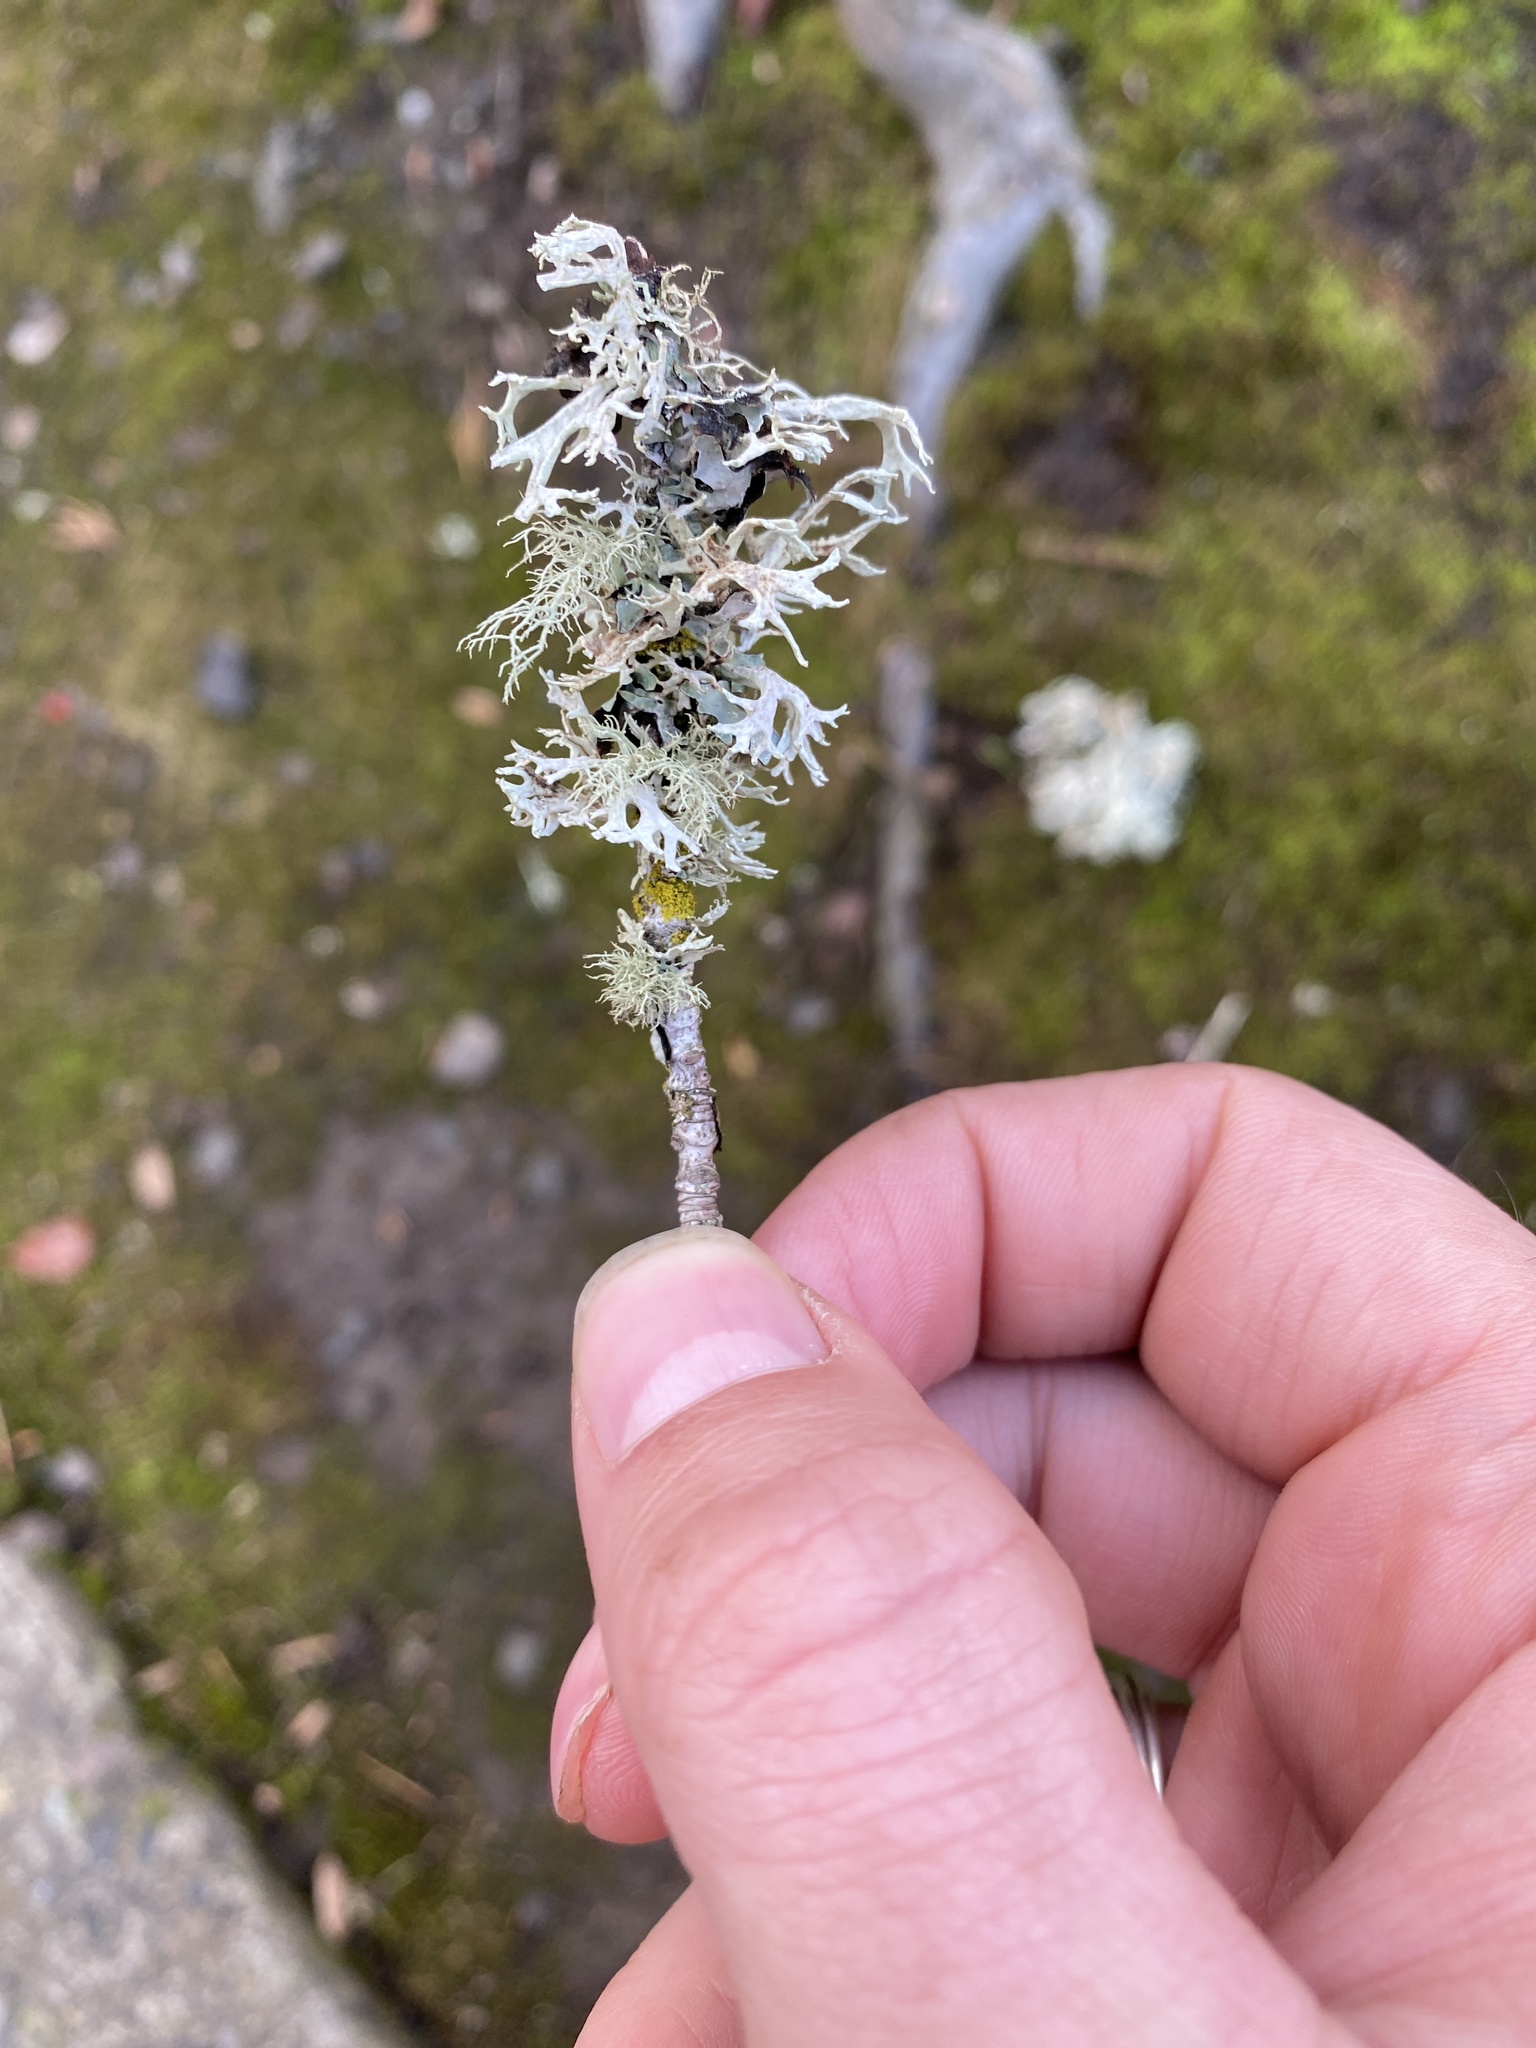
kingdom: Fungi
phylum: Ascomycota
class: Lecanoromycetes
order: Lecanorales
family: Parmeliaceae
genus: Evernia
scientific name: Evernia prunastri
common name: Oak moss
